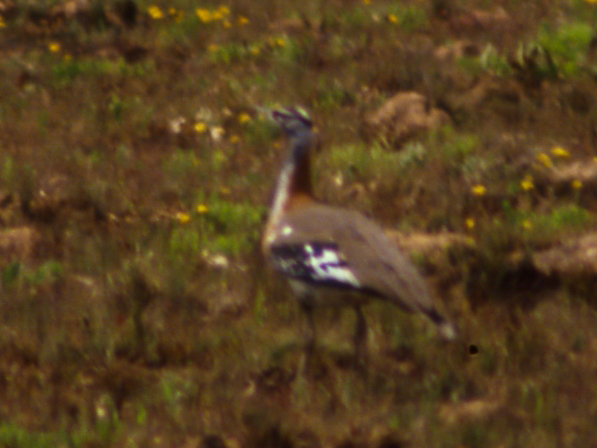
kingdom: Animalia
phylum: Chordata
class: Aves
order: Otidiformes
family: Otididae
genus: Neotis
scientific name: Neotis denhami
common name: Denham's bustard
